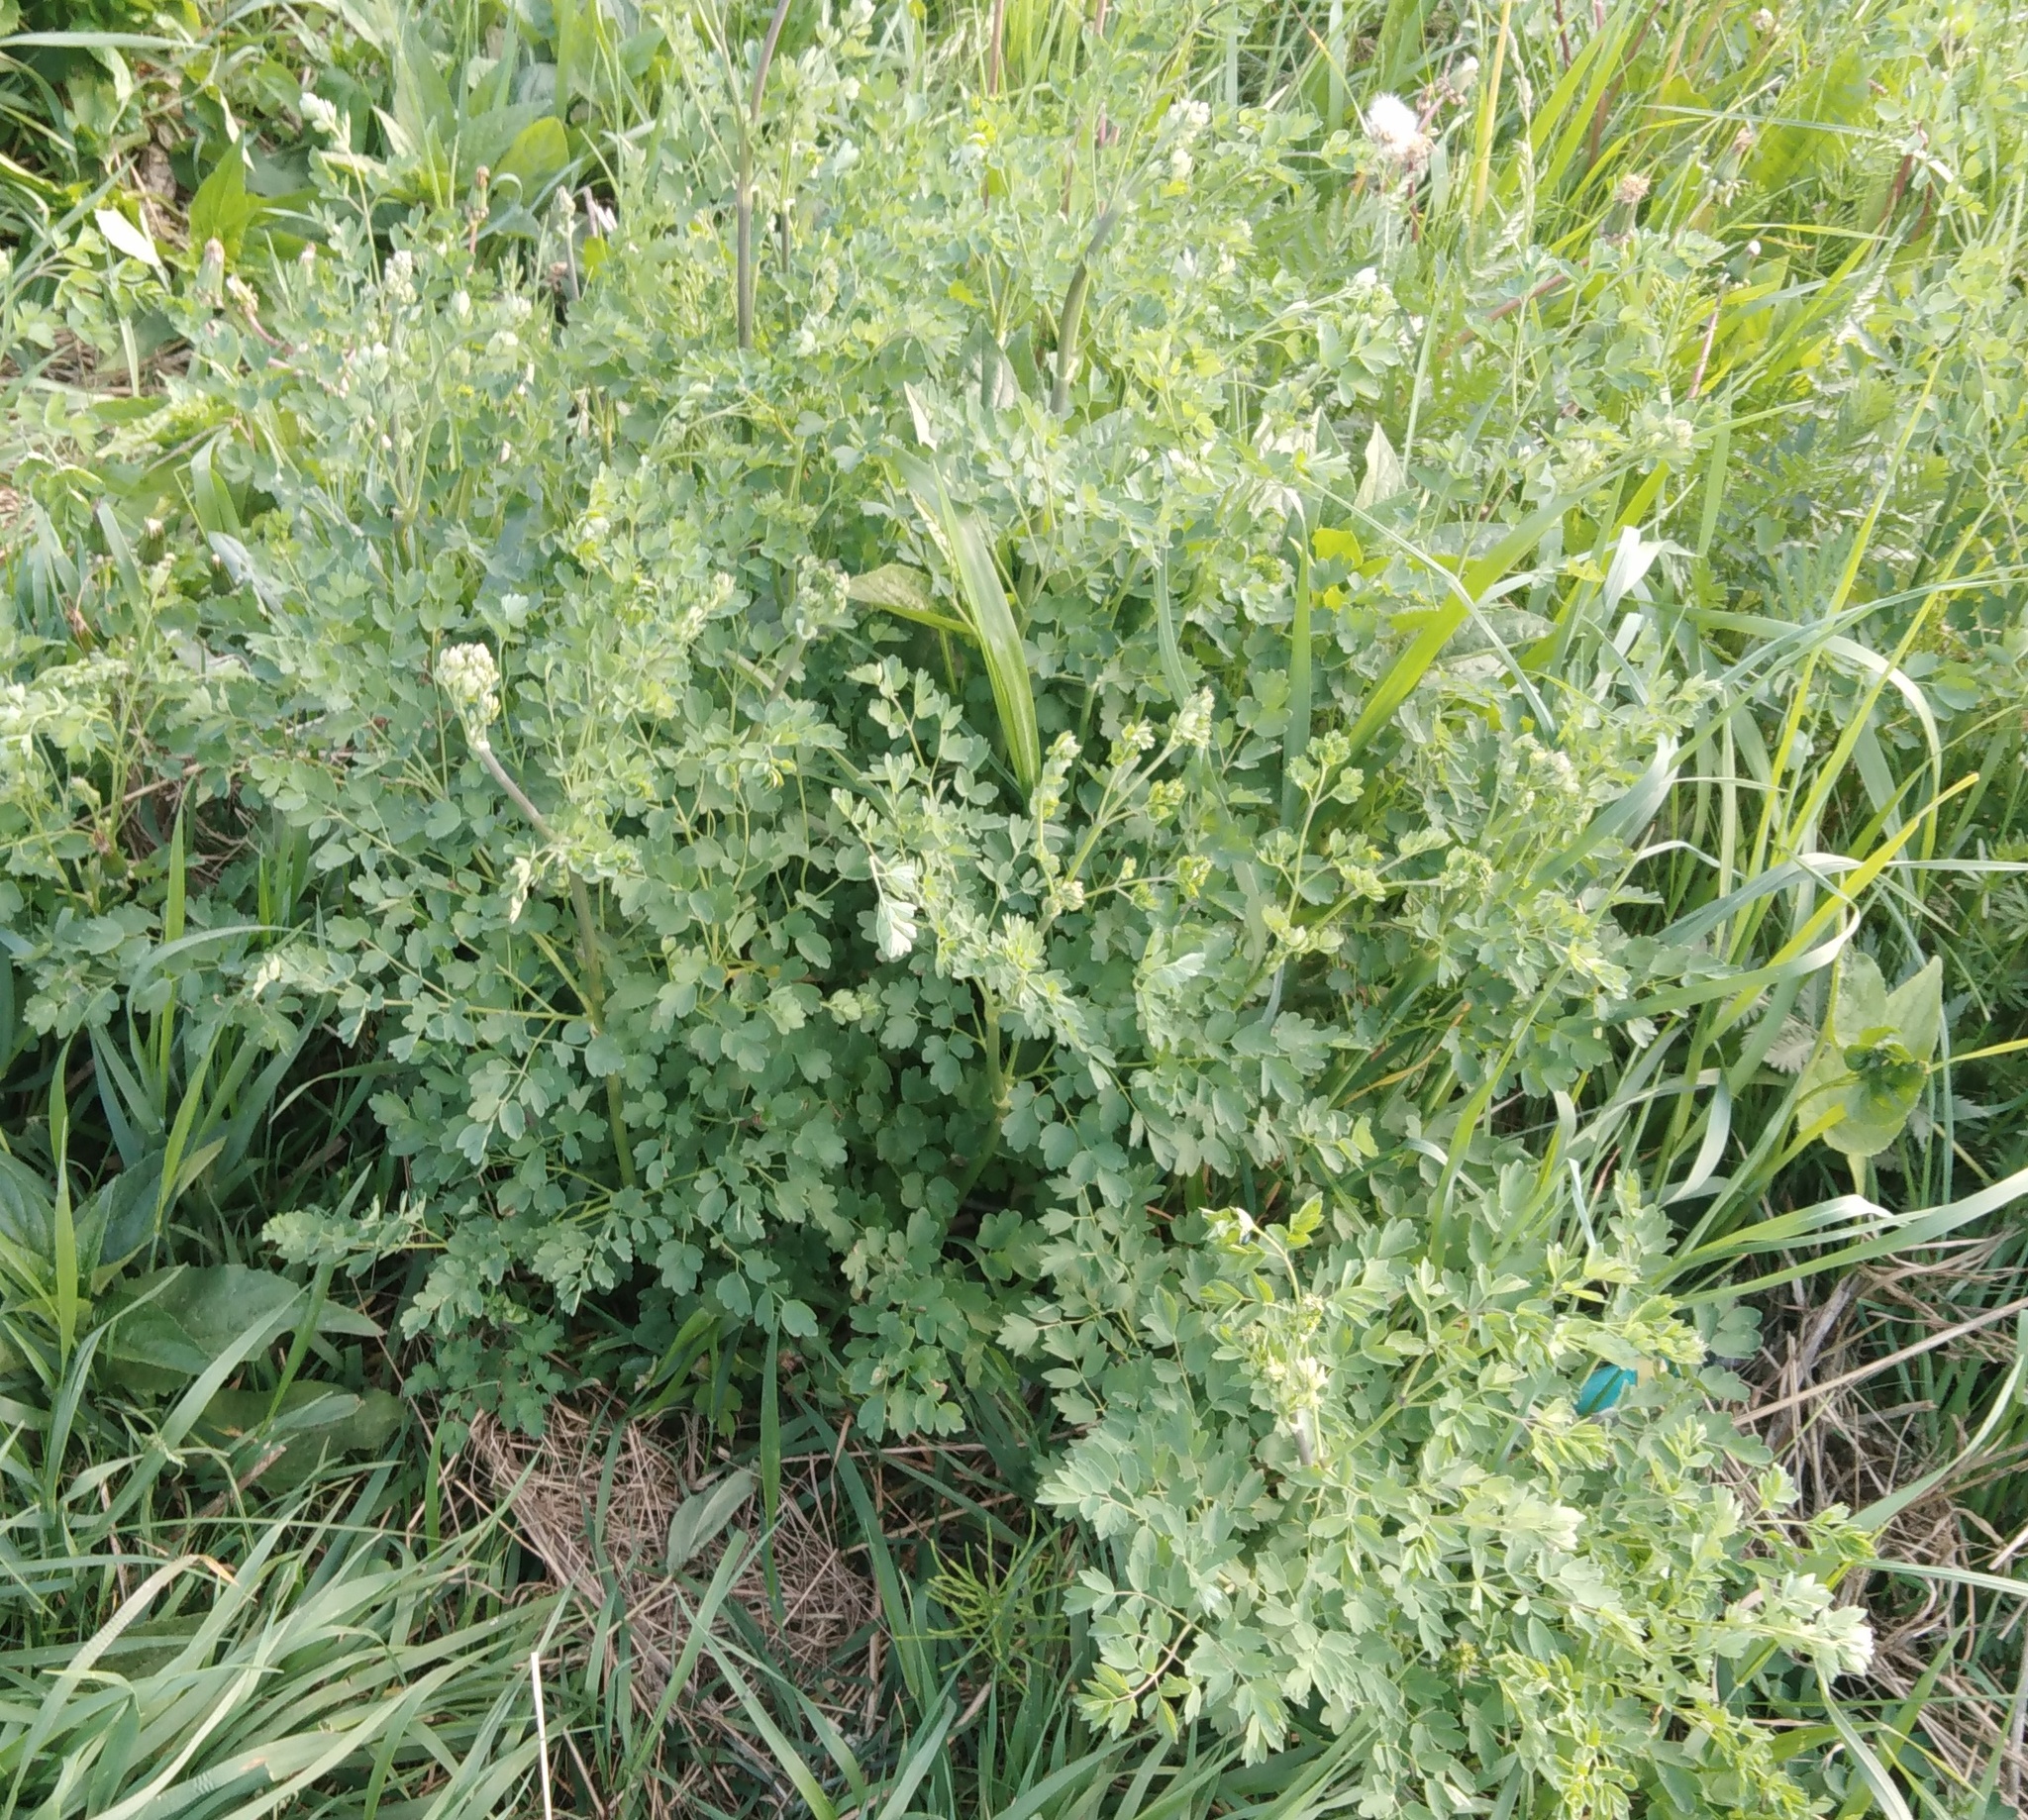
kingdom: Plantae
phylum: Tracheophyta
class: Magnoliopsida
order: Ranunculales
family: Ranunculaceae
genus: Thalictrum
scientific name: Thalictrum minus
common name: Lesser meadow-rue
